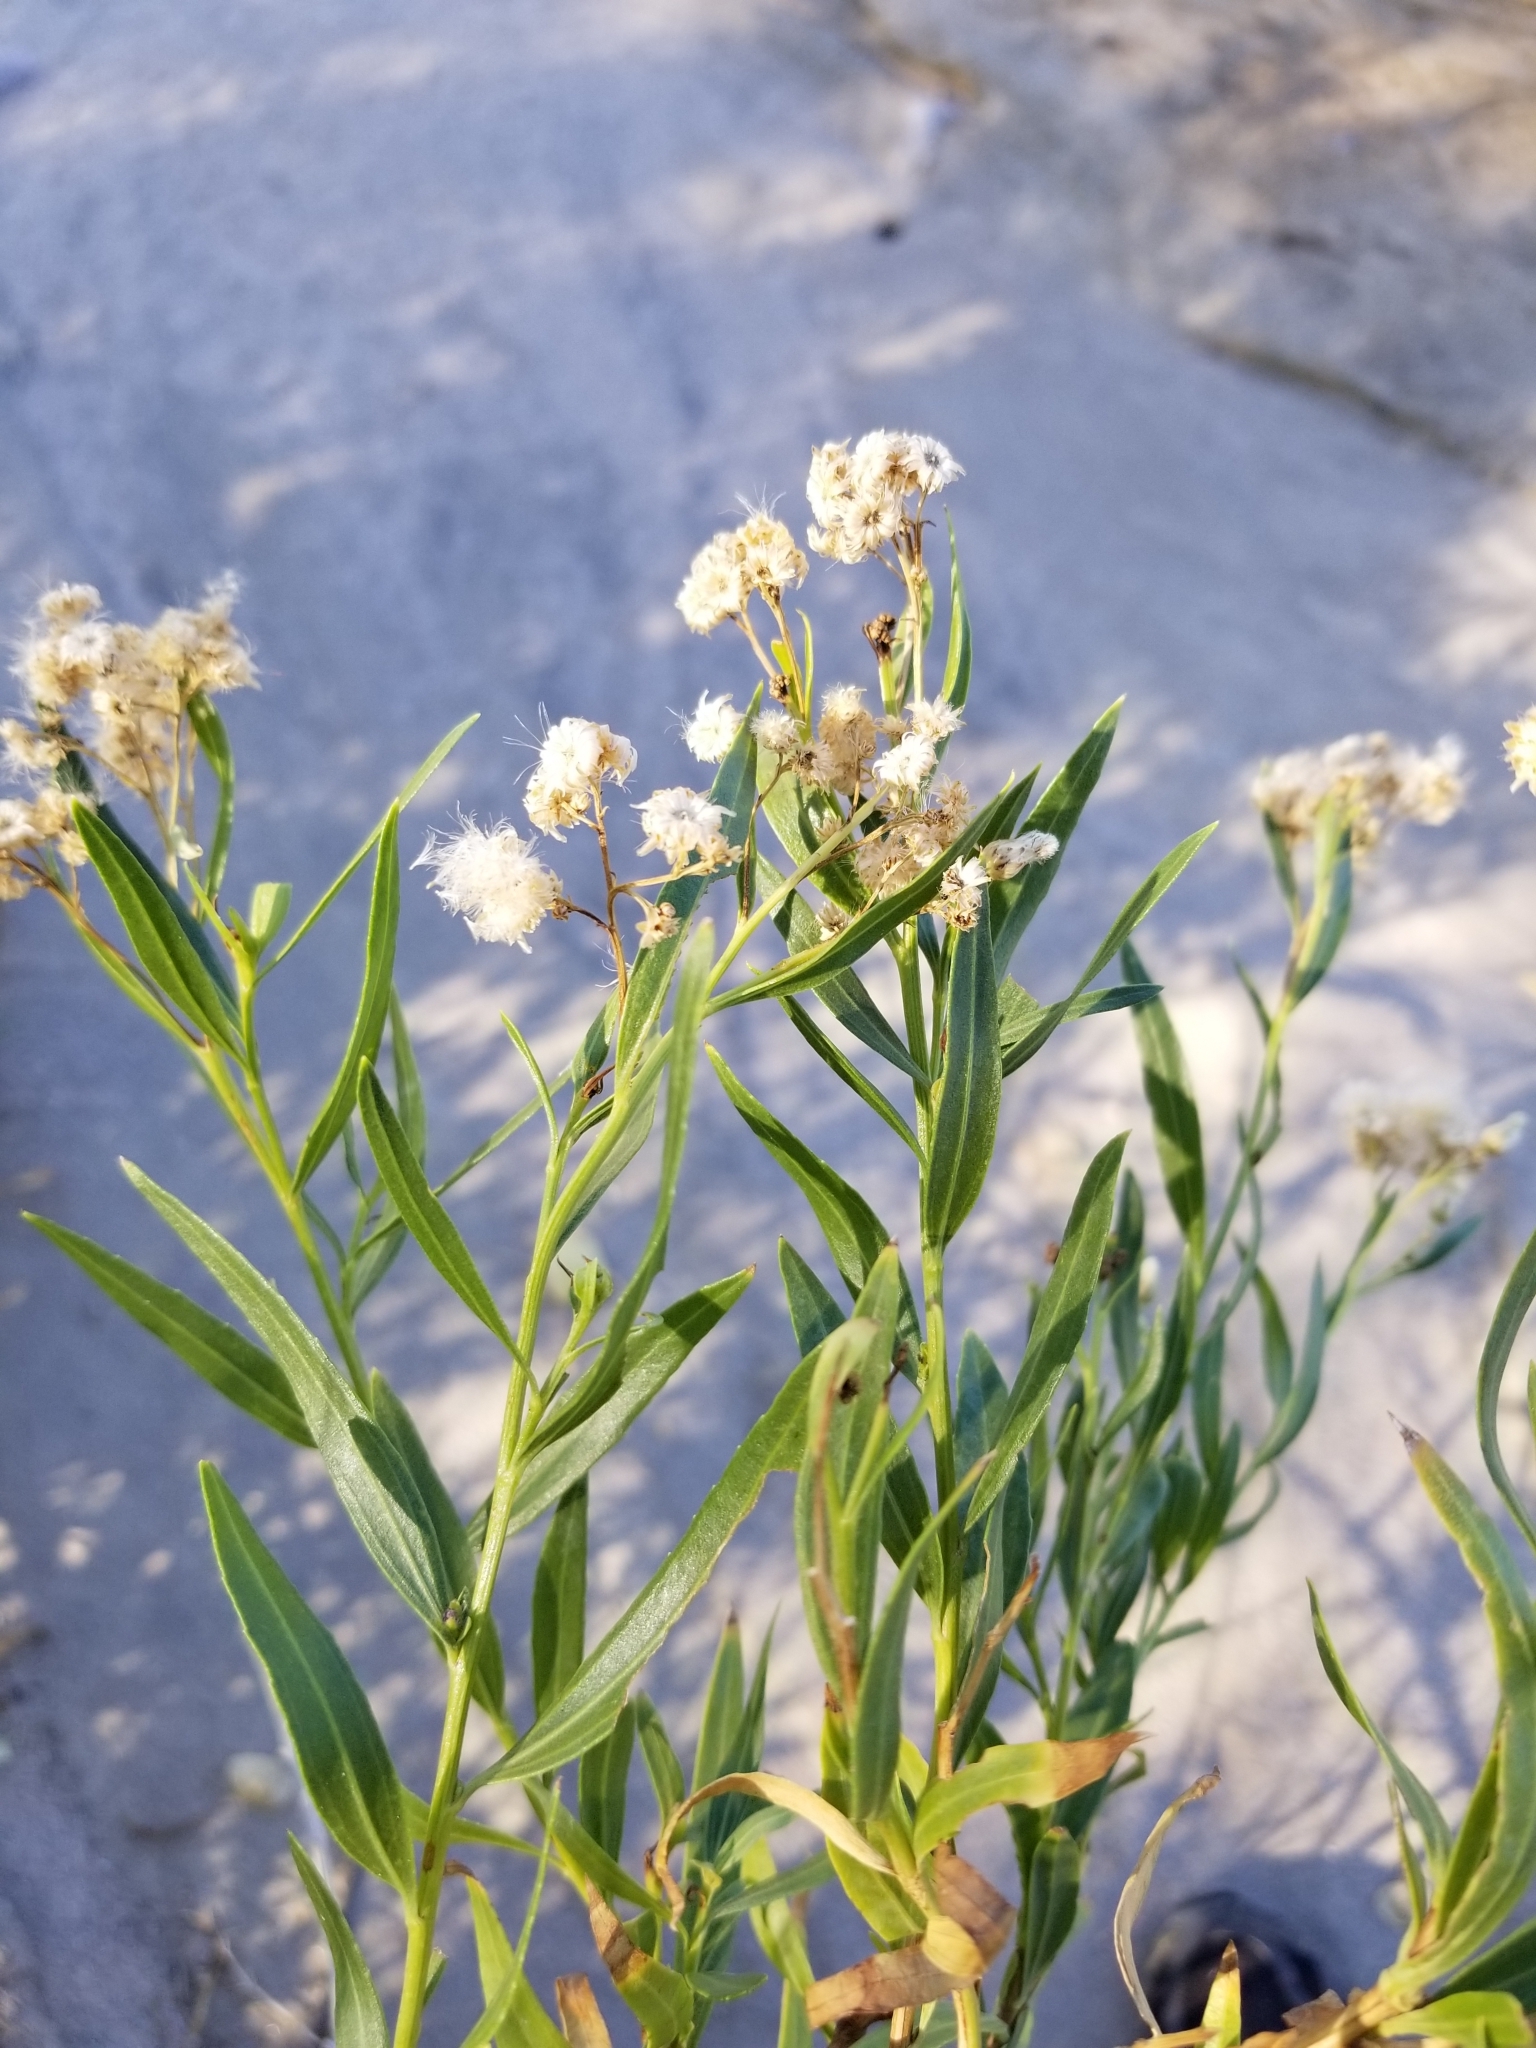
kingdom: Plantae
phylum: Tracheophyta
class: Magnoliopsida
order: Asterales
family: Asteraceae
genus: Baccharis
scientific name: Baccharis salicifolia
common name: Sticky baccharis
